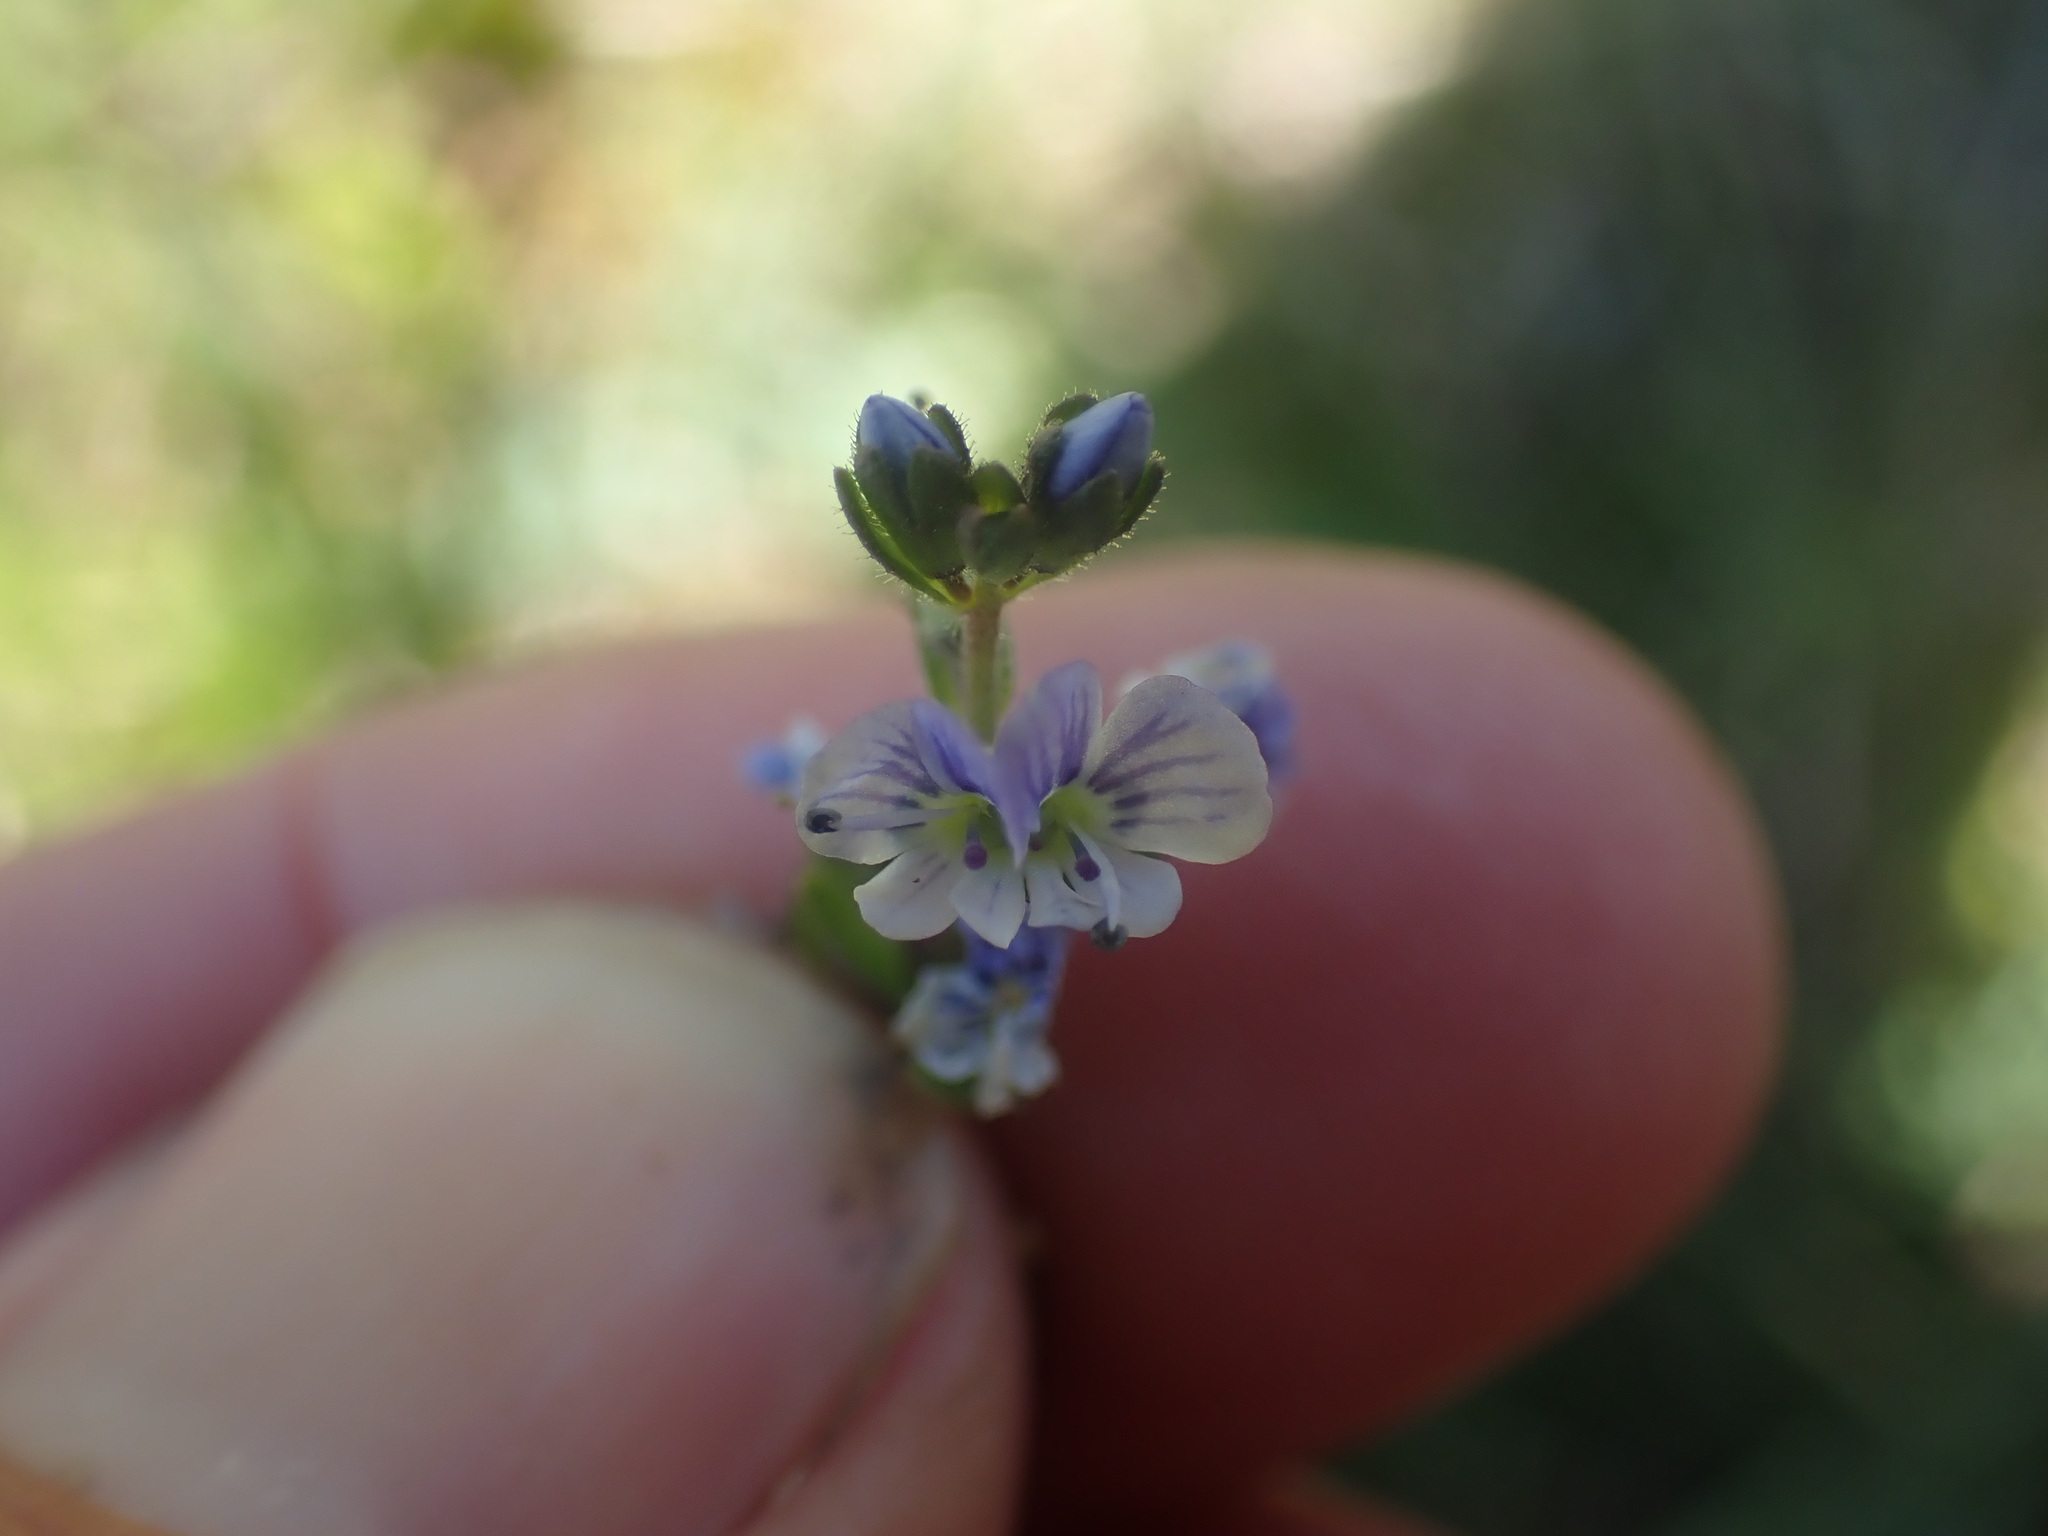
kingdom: Plantae
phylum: Tracheophyta
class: Magnoliopsida
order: Lamiales
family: Plantaginaceae
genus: Veronica
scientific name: Veronica serpyllifolia
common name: Thyme-leaved speedwell
